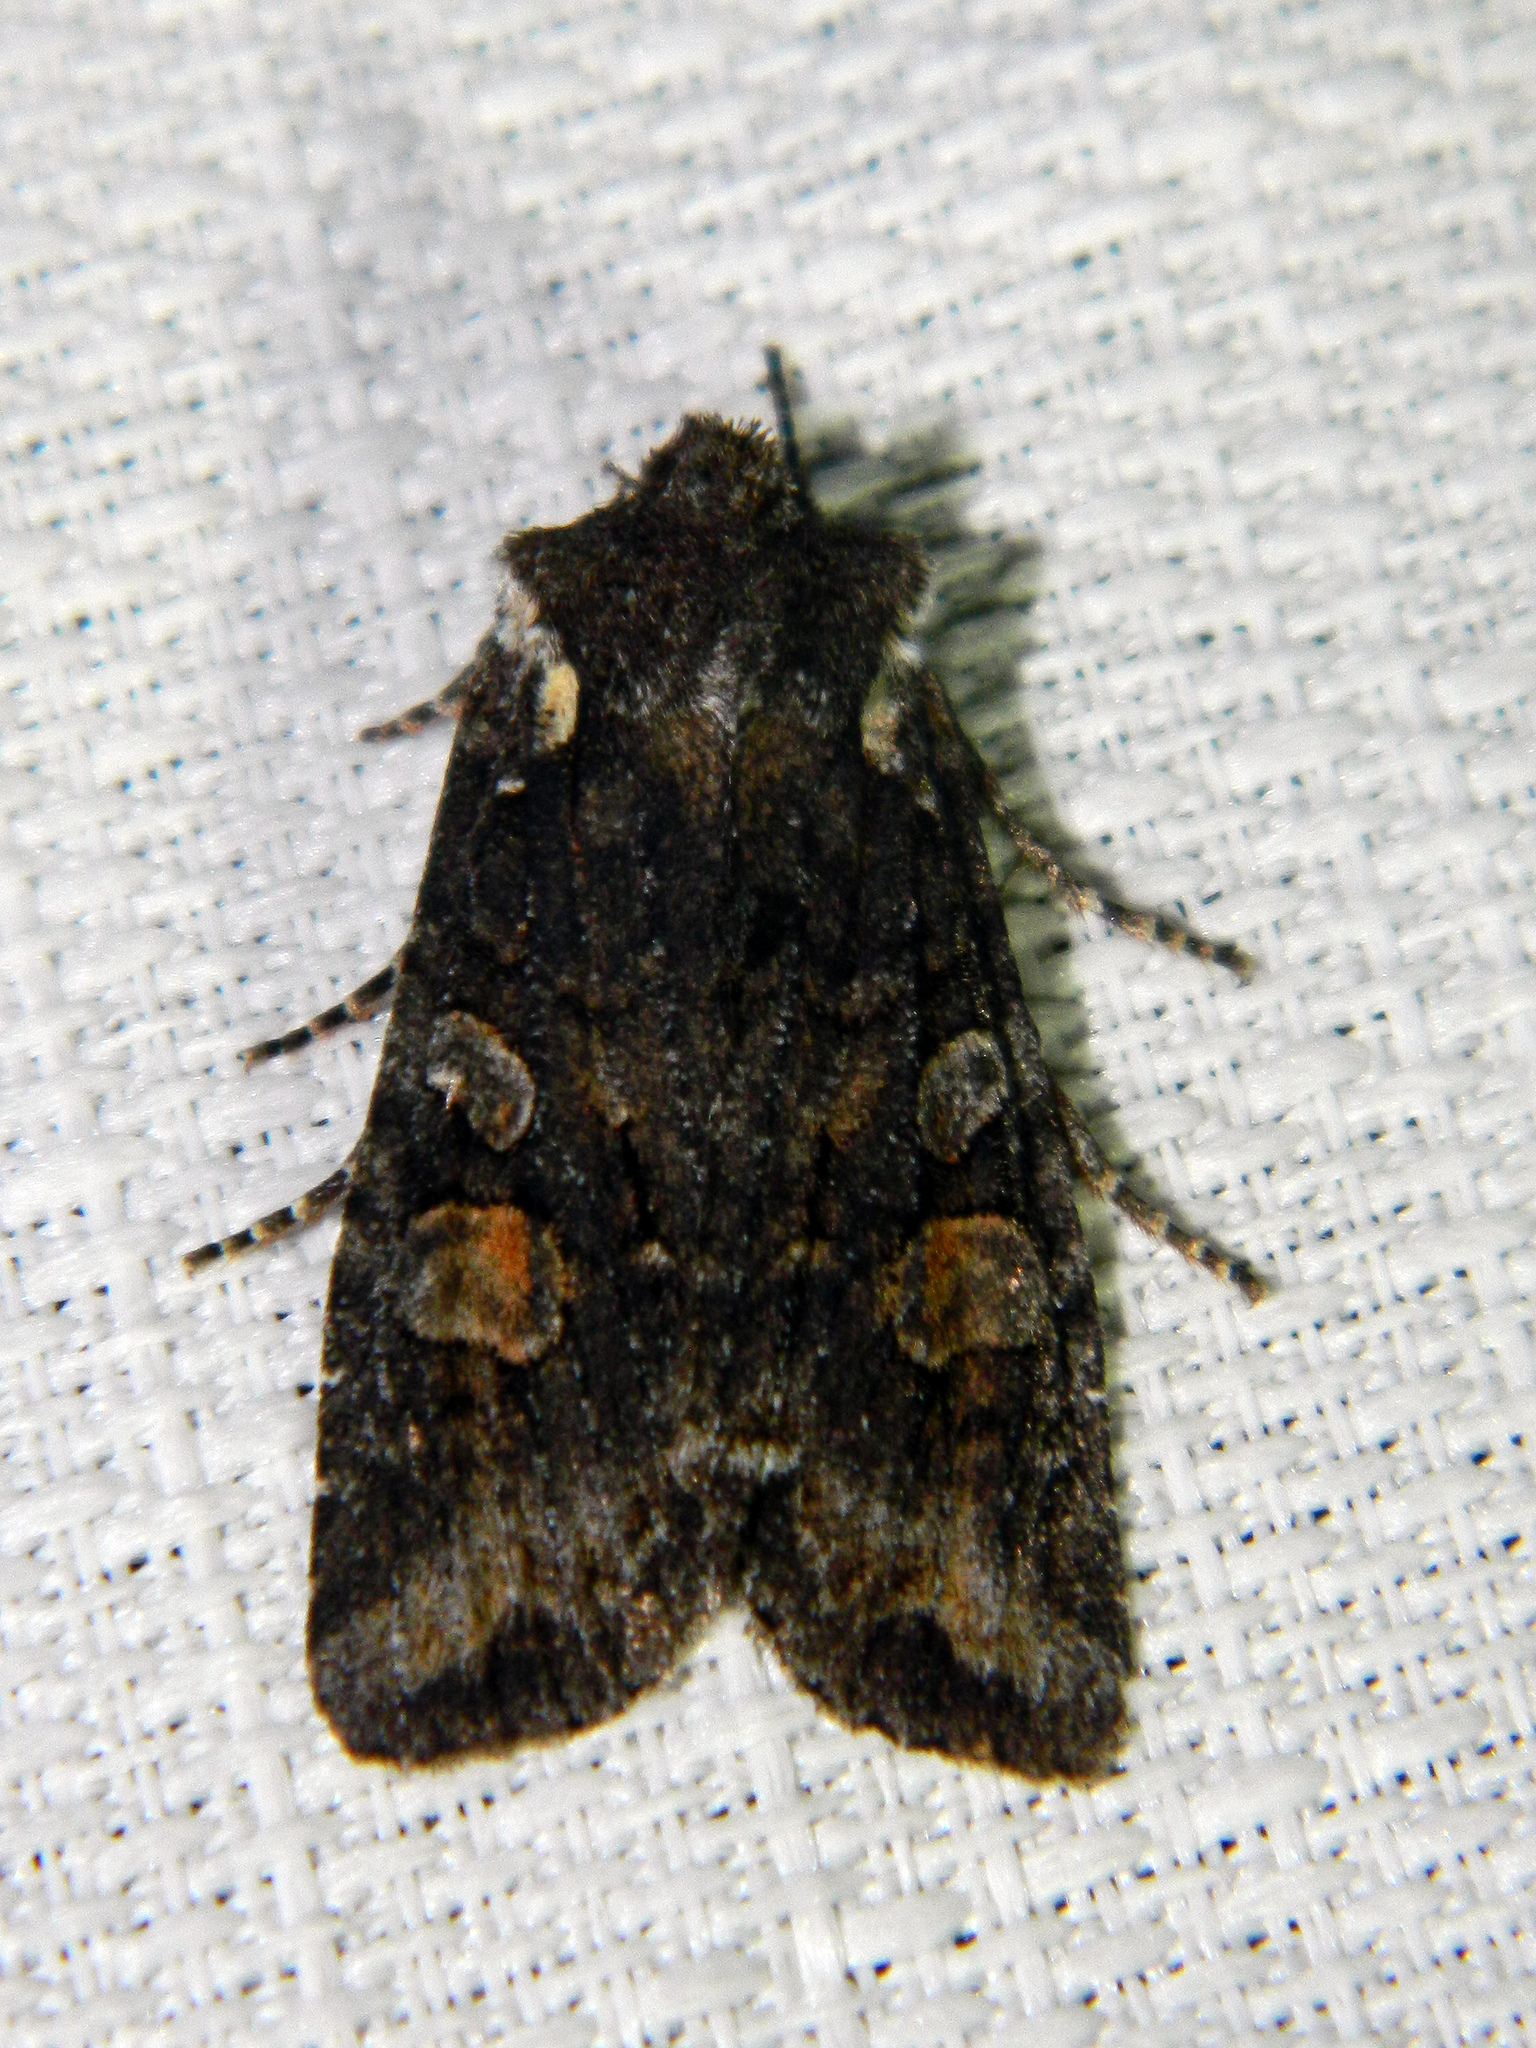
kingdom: Animalia
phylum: Arthropoda
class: Insecta
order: Lepidoptera
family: Noctuidae
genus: Lithophane
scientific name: Lithophane pexata
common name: Plush-naped pinion moth
